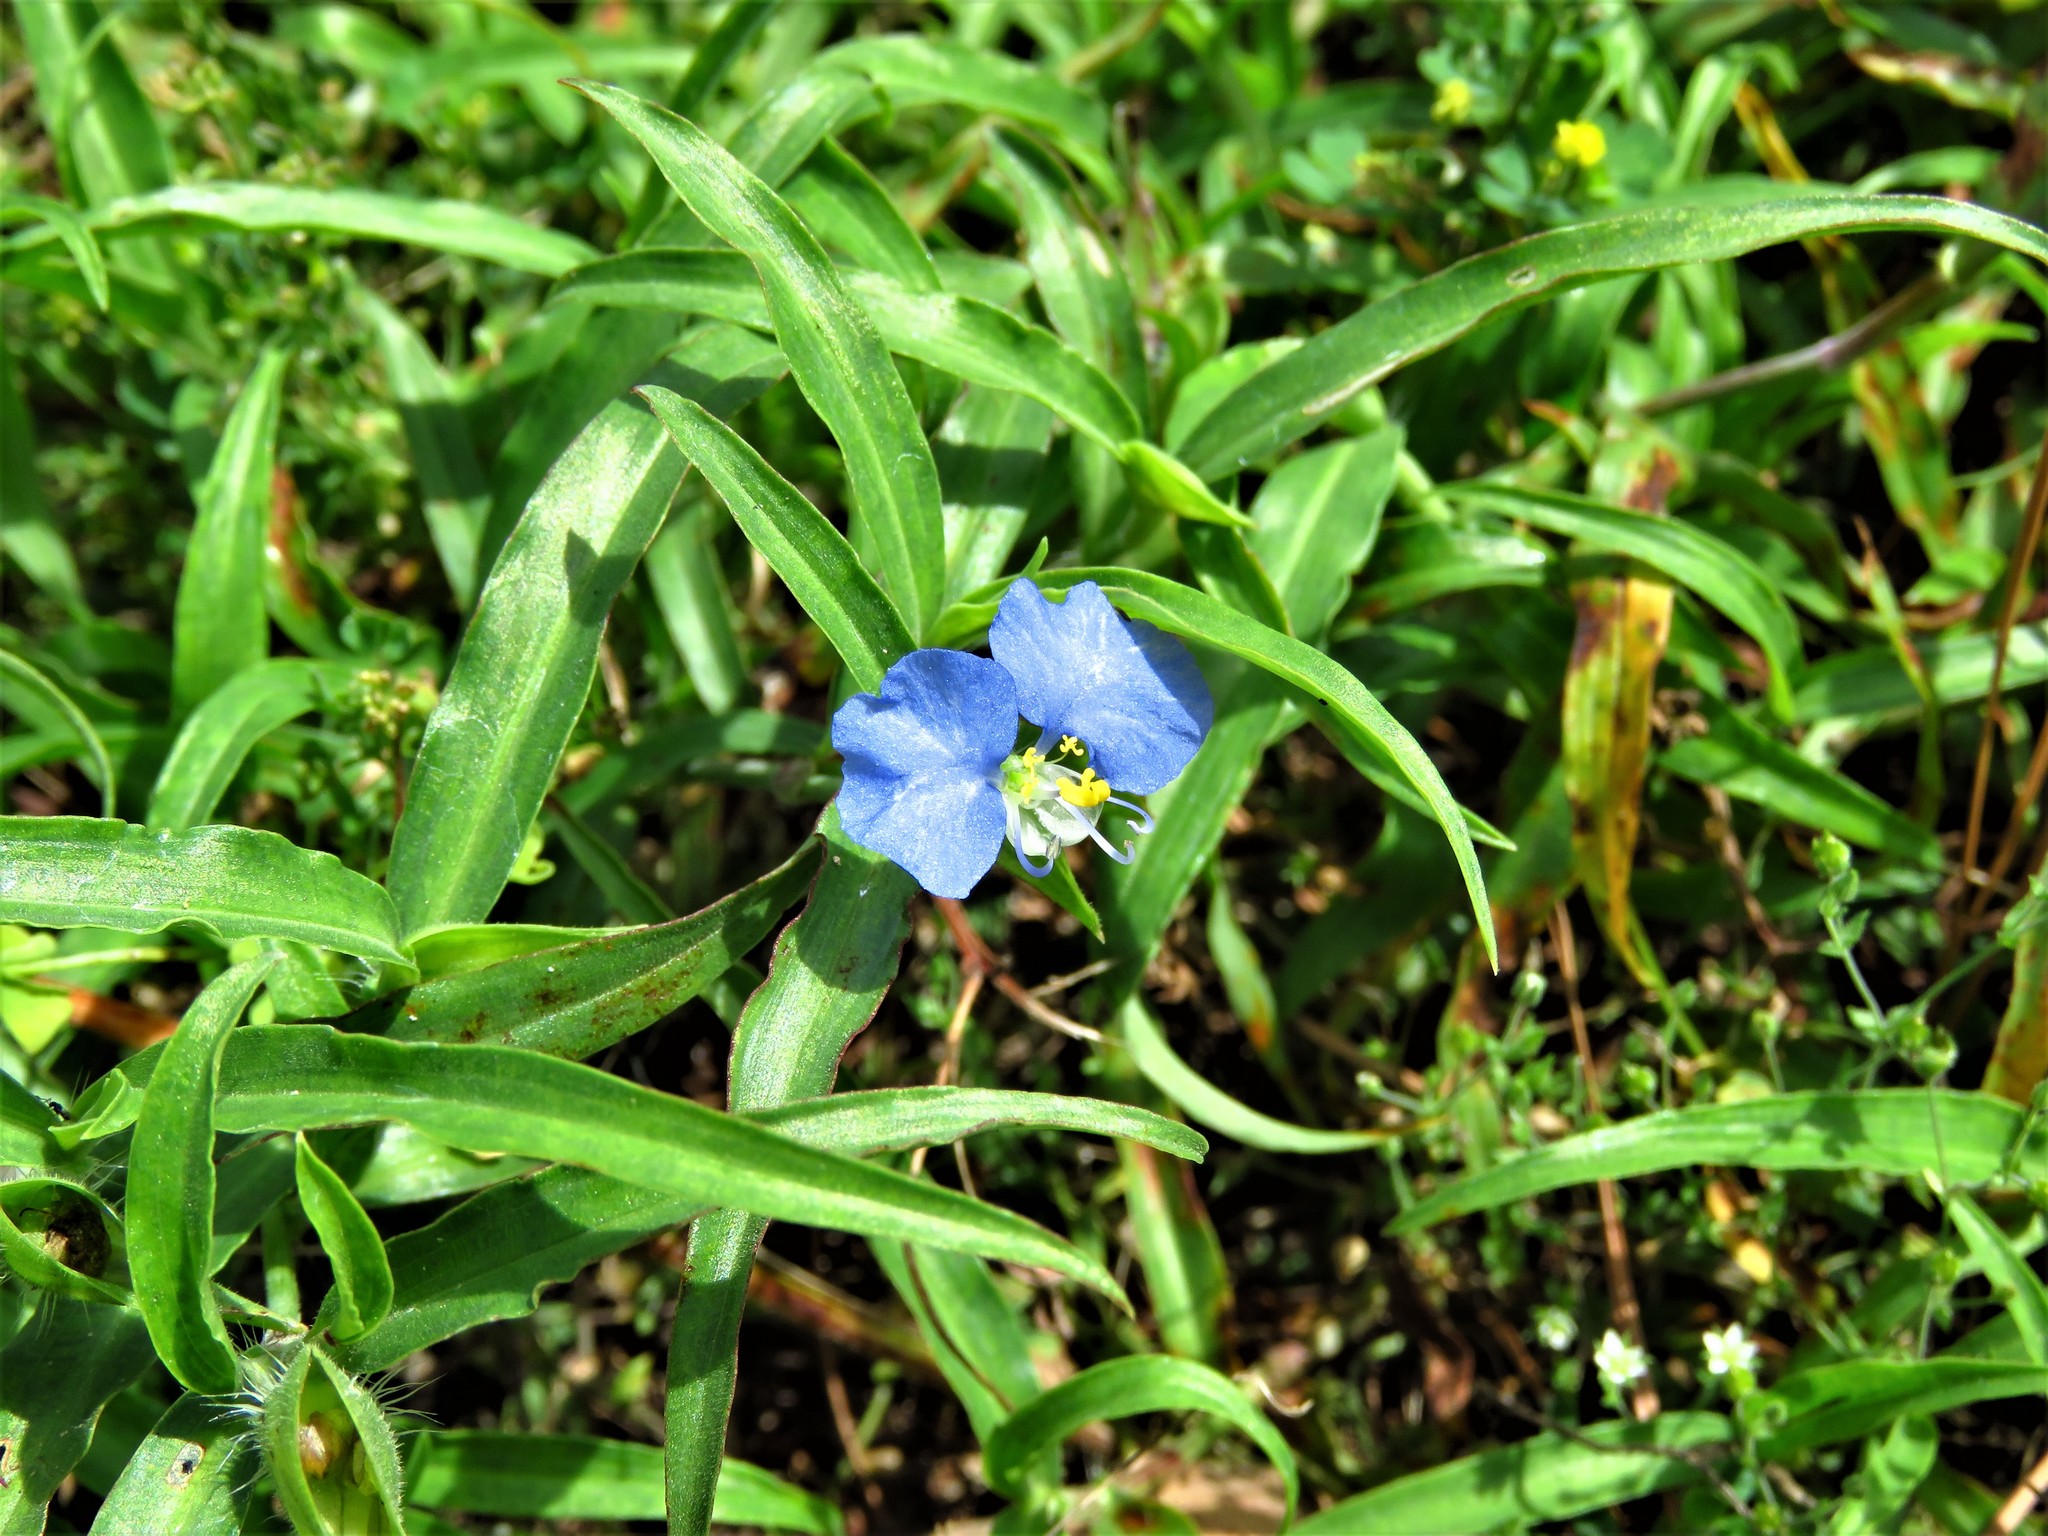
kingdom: Plantae
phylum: Tracheophyta
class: Liliopsida
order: Commelinales
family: Commelinaceae
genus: Commelina
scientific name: Commelina erecta
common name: Blousel blommetjie
